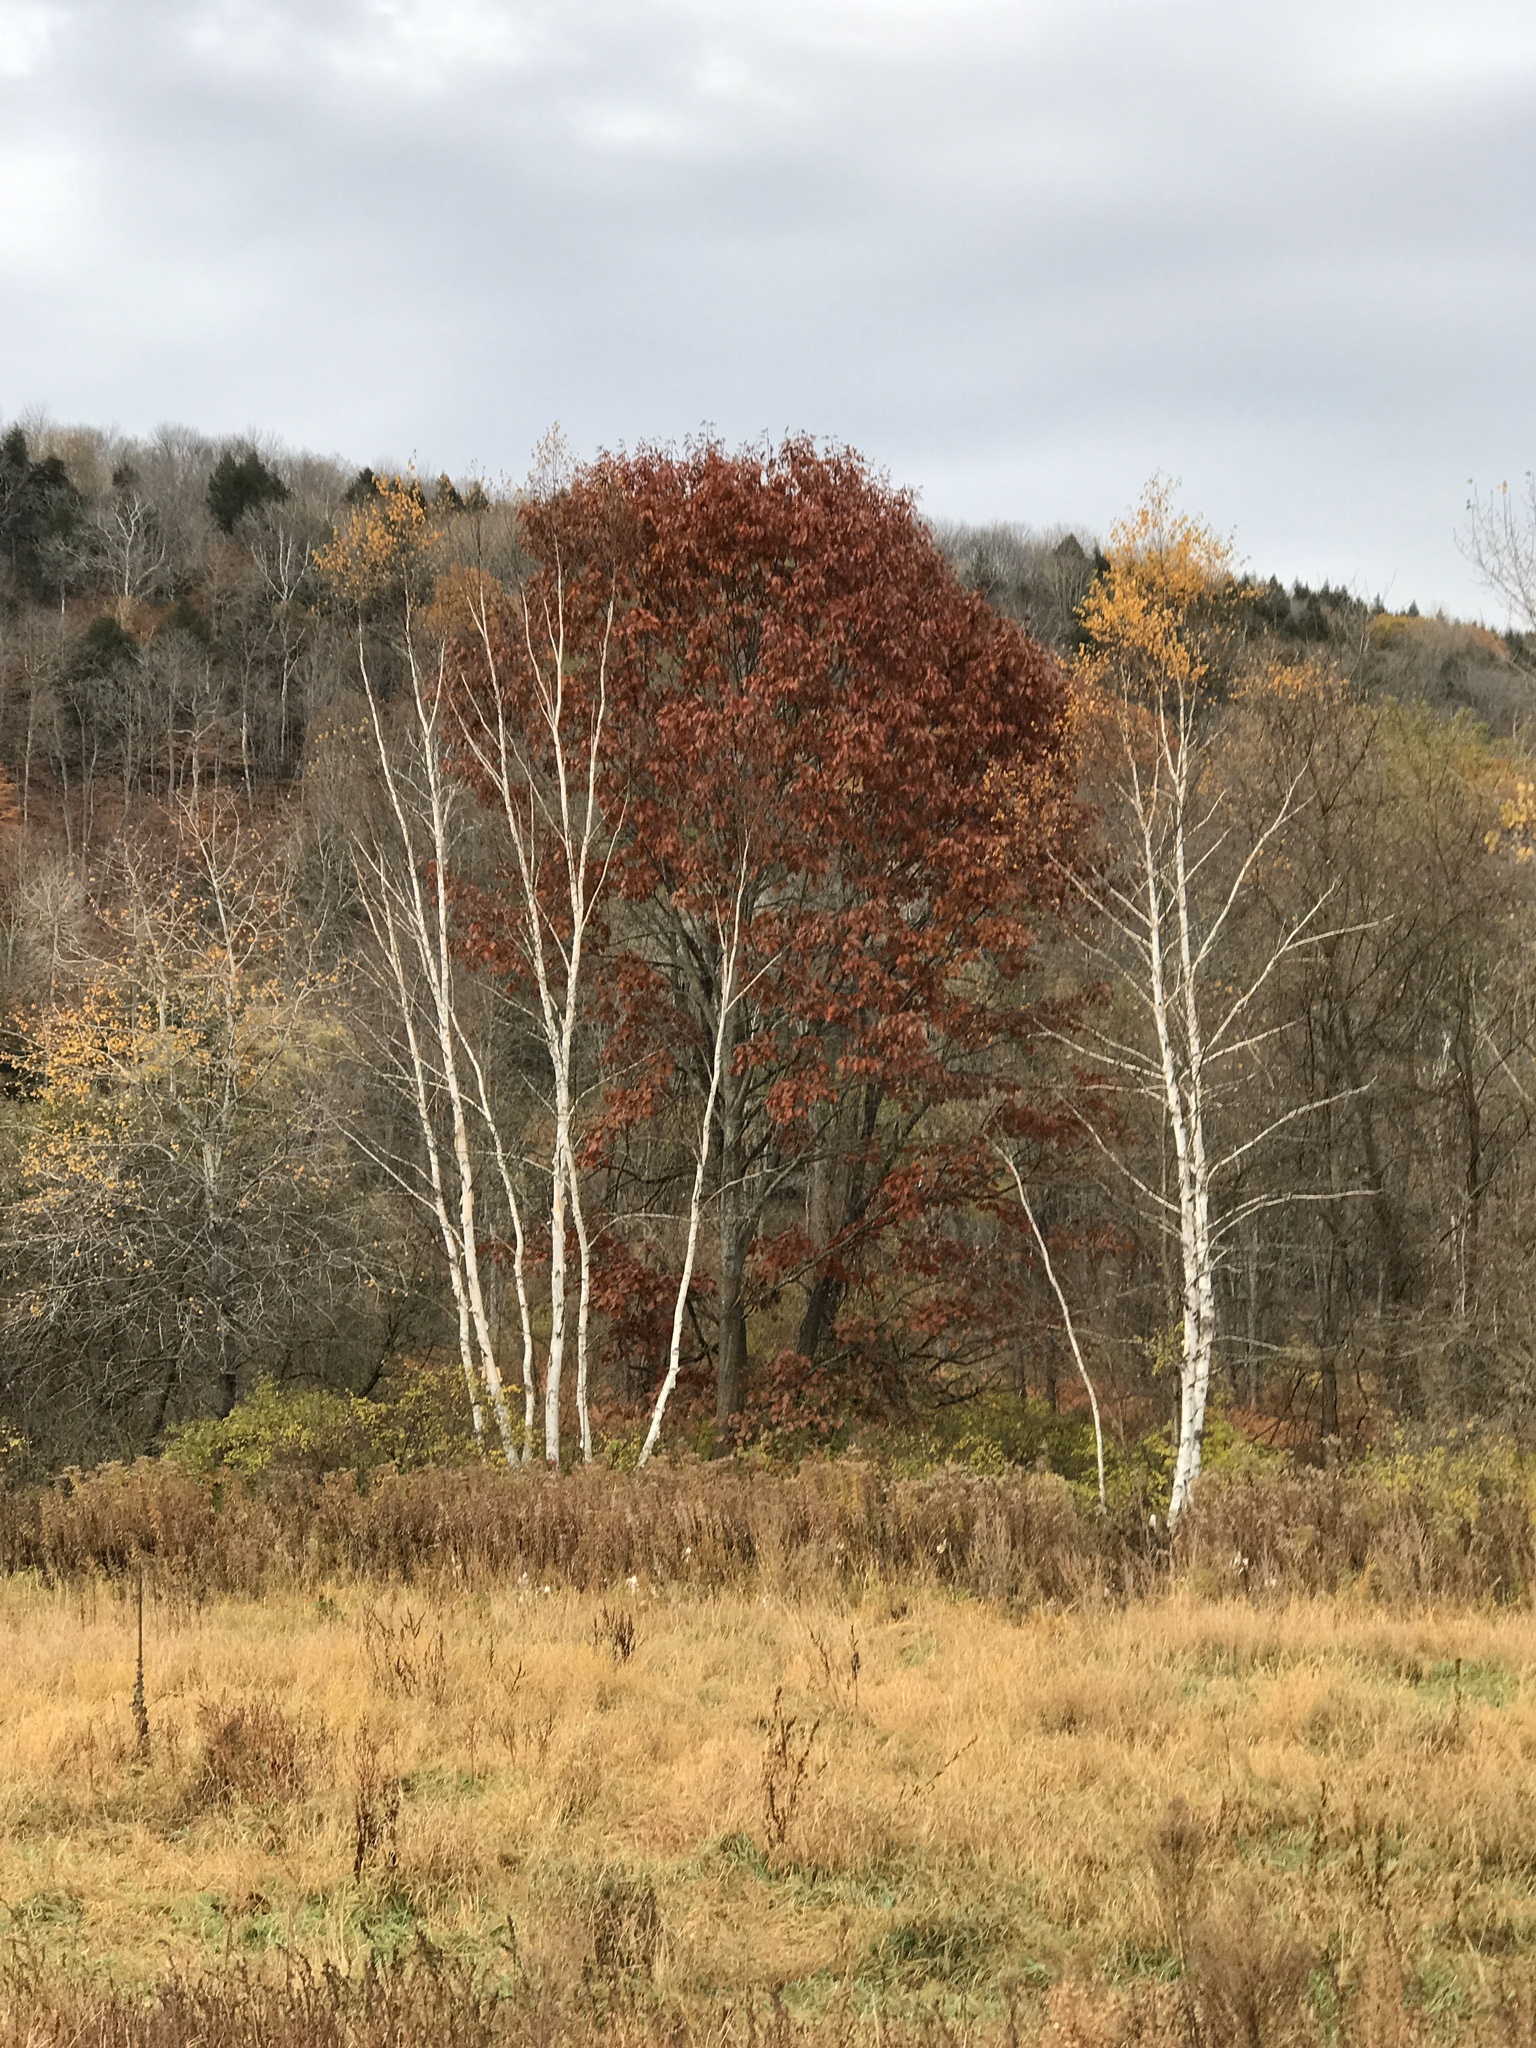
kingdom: Plantae
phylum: Tracheophyta
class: Magnoliopsida
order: Fagales
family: Betulaceae
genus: Betula
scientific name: Betula papyrifera
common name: Paper birch
